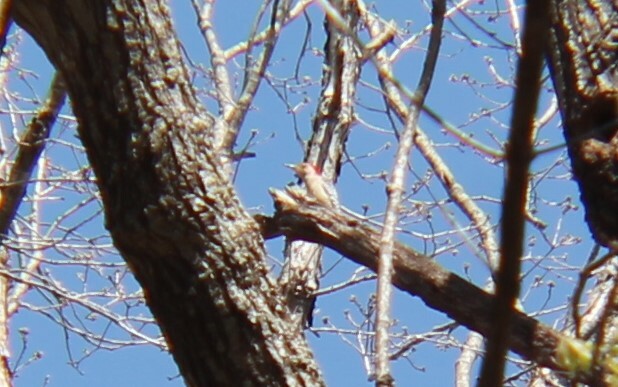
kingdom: Animalia
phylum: Chordata
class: Aves
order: Piciformes
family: Picidae
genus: Melanerpes
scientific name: Melanerpes carolinus
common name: Red-bellied woodpecker
